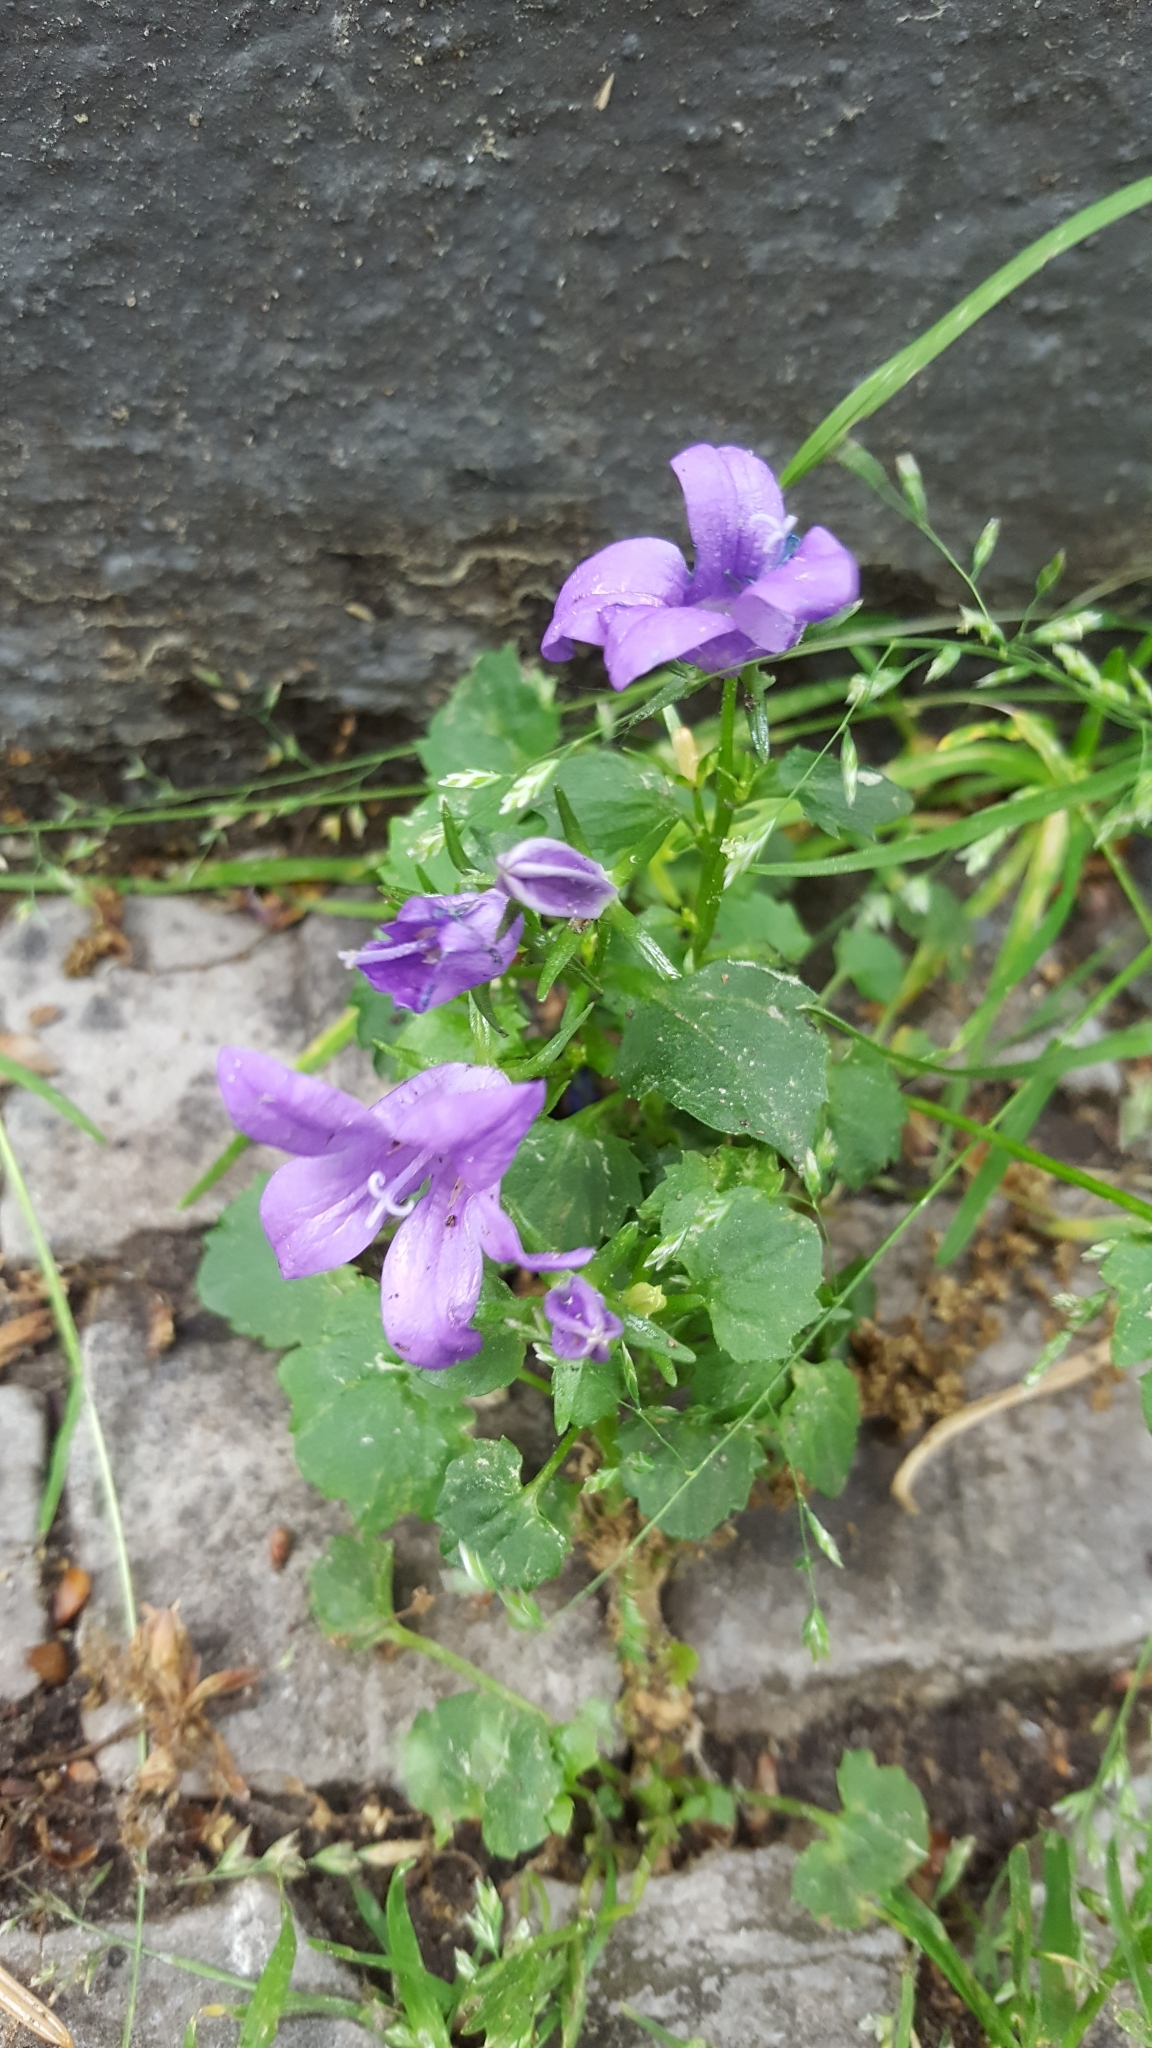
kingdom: Plantae
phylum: Tracheophyta
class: Magnoliopsida
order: Asterales
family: Campanulaceae
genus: Campanula
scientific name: Campanula poscharskyana
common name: Trailing bellflower
